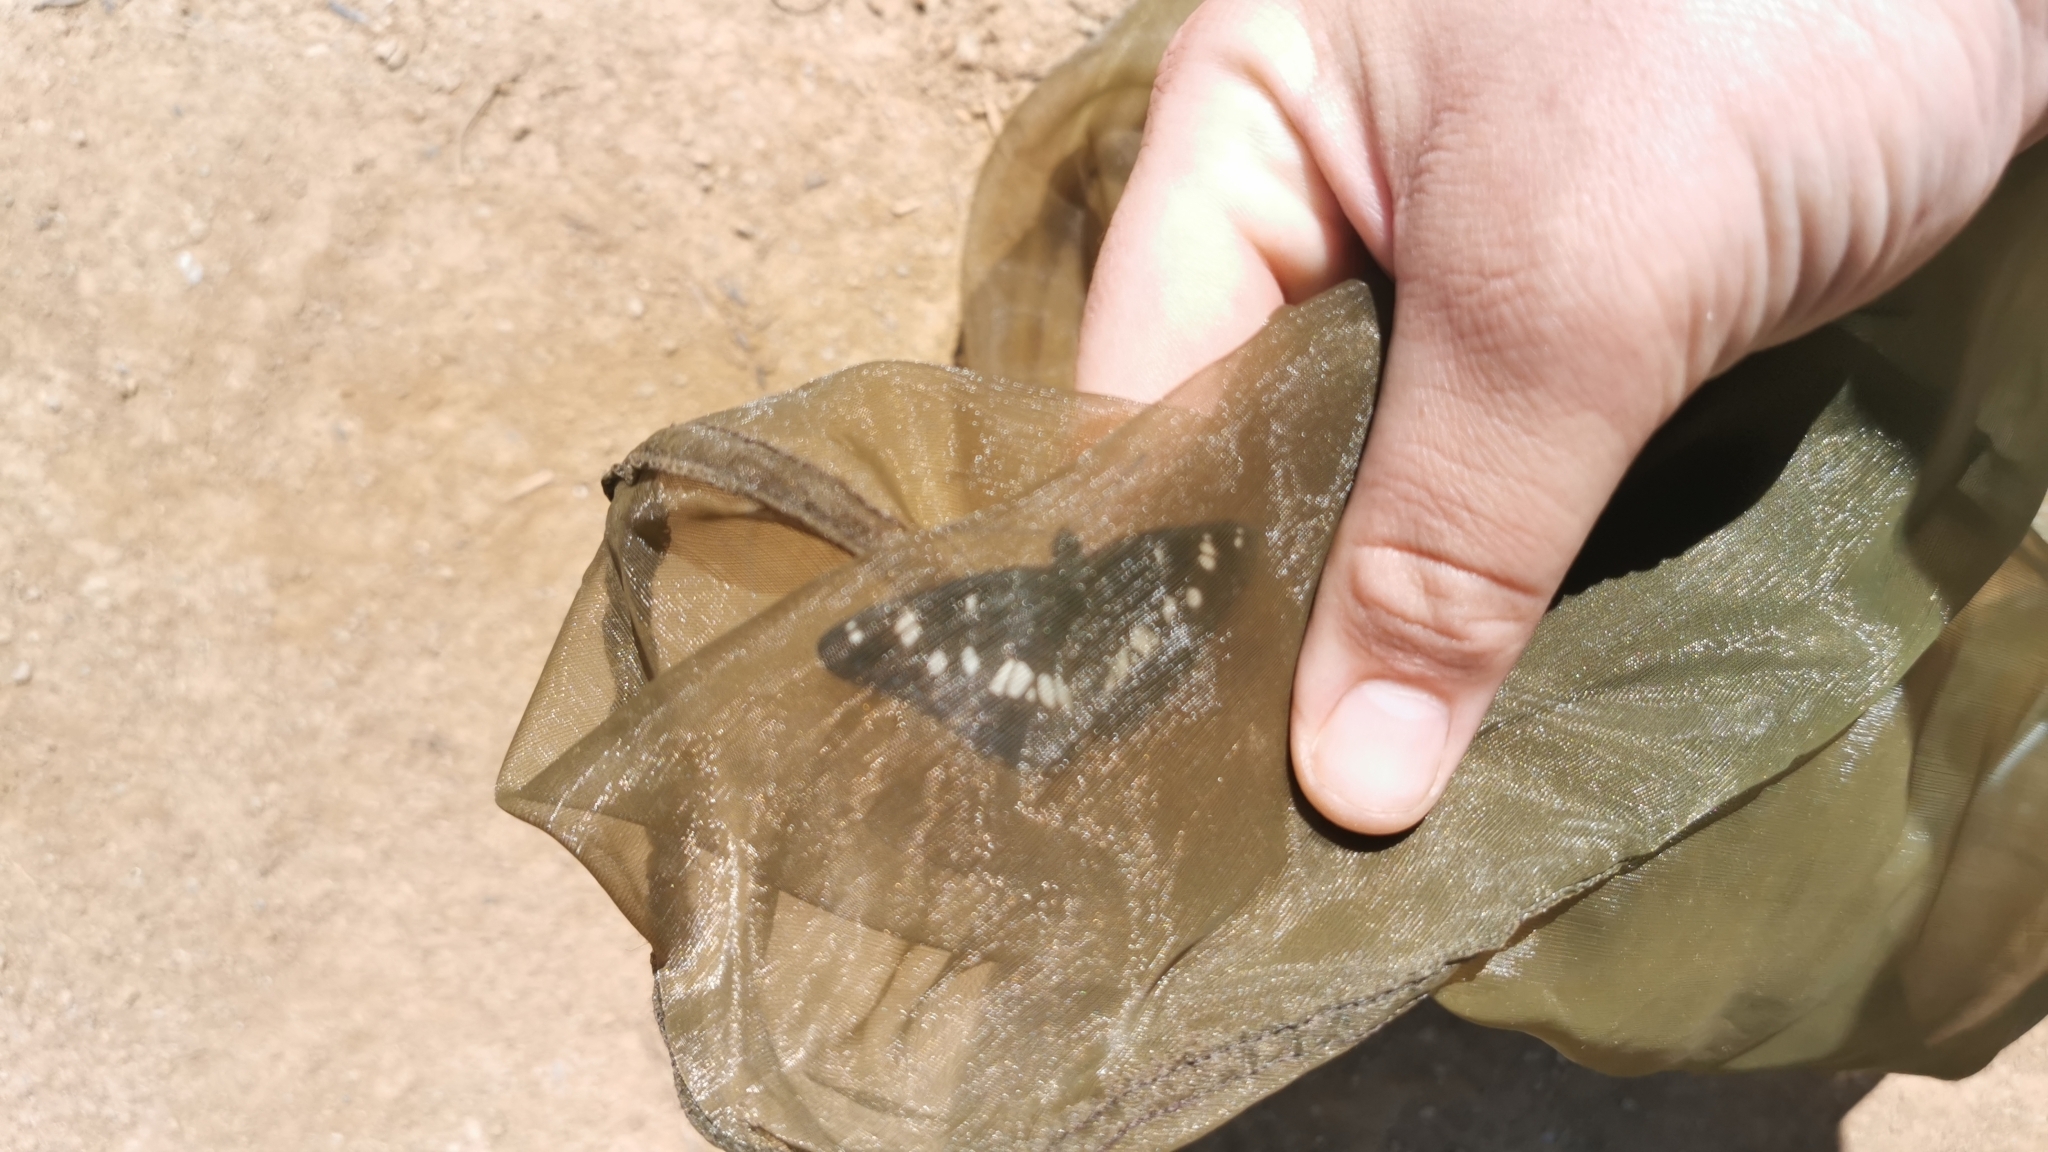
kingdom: Animalia
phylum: Arthropoda
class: Insecta
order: Lepidoptera
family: Nymphalidae
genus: Limenitis
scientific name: Limenitis reducta
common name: Southern white admiral
